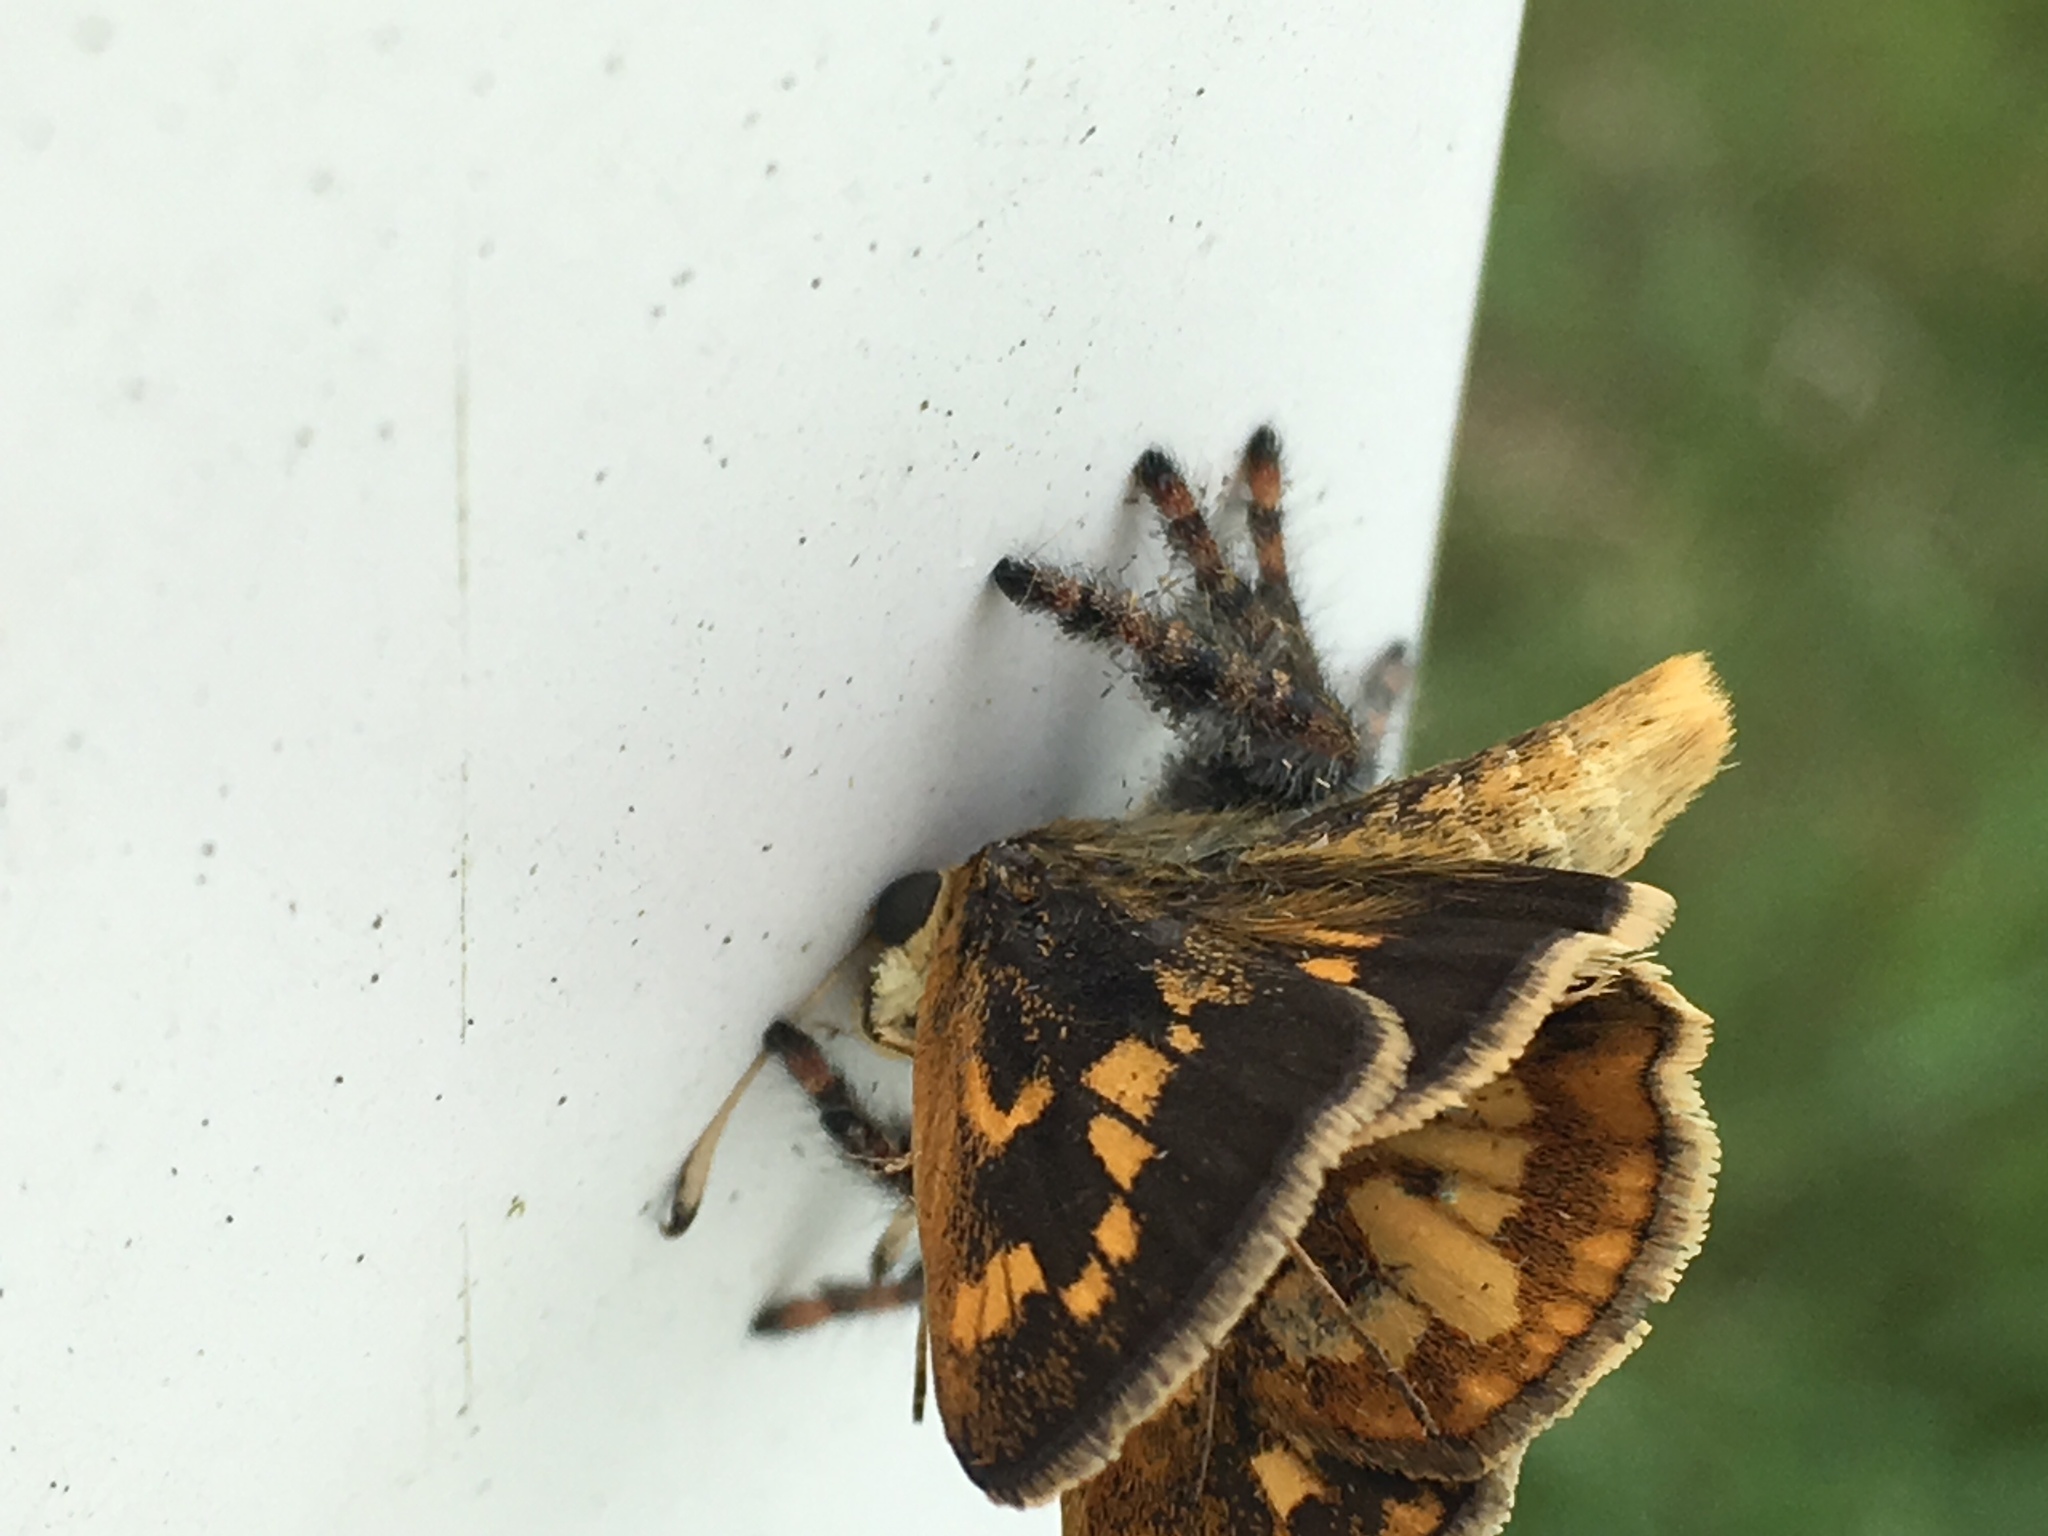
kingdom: Animalia
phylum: Arthropoda
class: Insecta
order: Lepidoptera
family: Hesperiidae
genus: Polites
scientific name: Polites coras
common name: Peck's skipper
